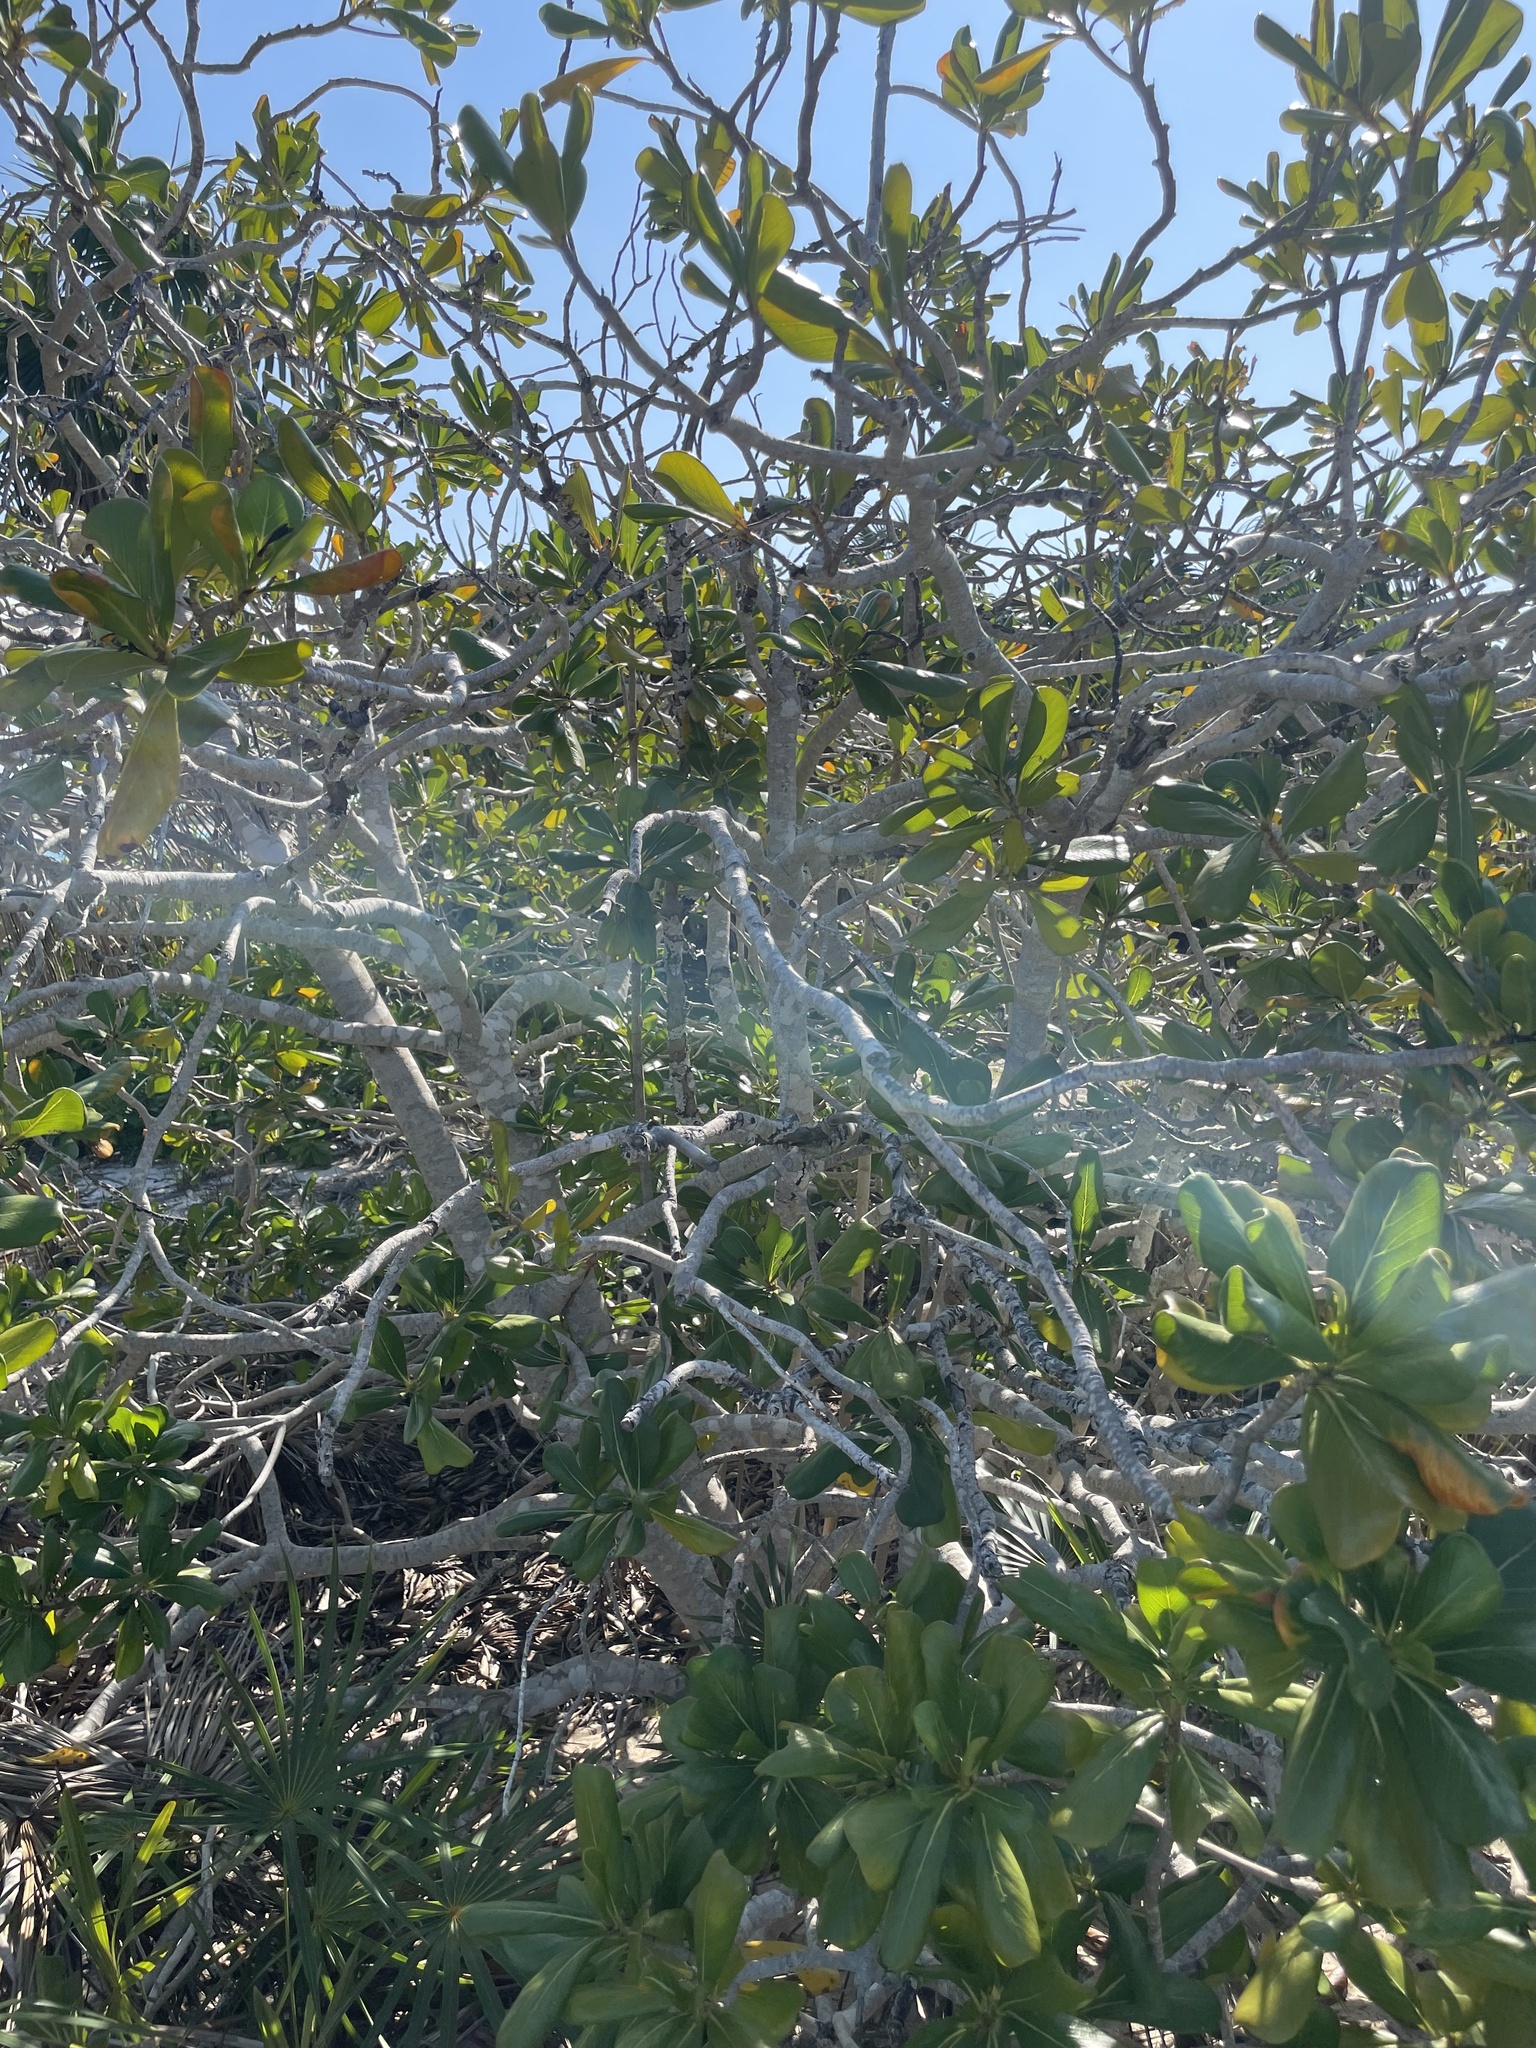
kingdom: Plantae
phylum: Tracheophyta
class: Magnoliopsida
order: Gentianales
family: Rubiaceae
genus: Casasia
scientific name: Casasia clusiifolia
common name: Seven-year apple
